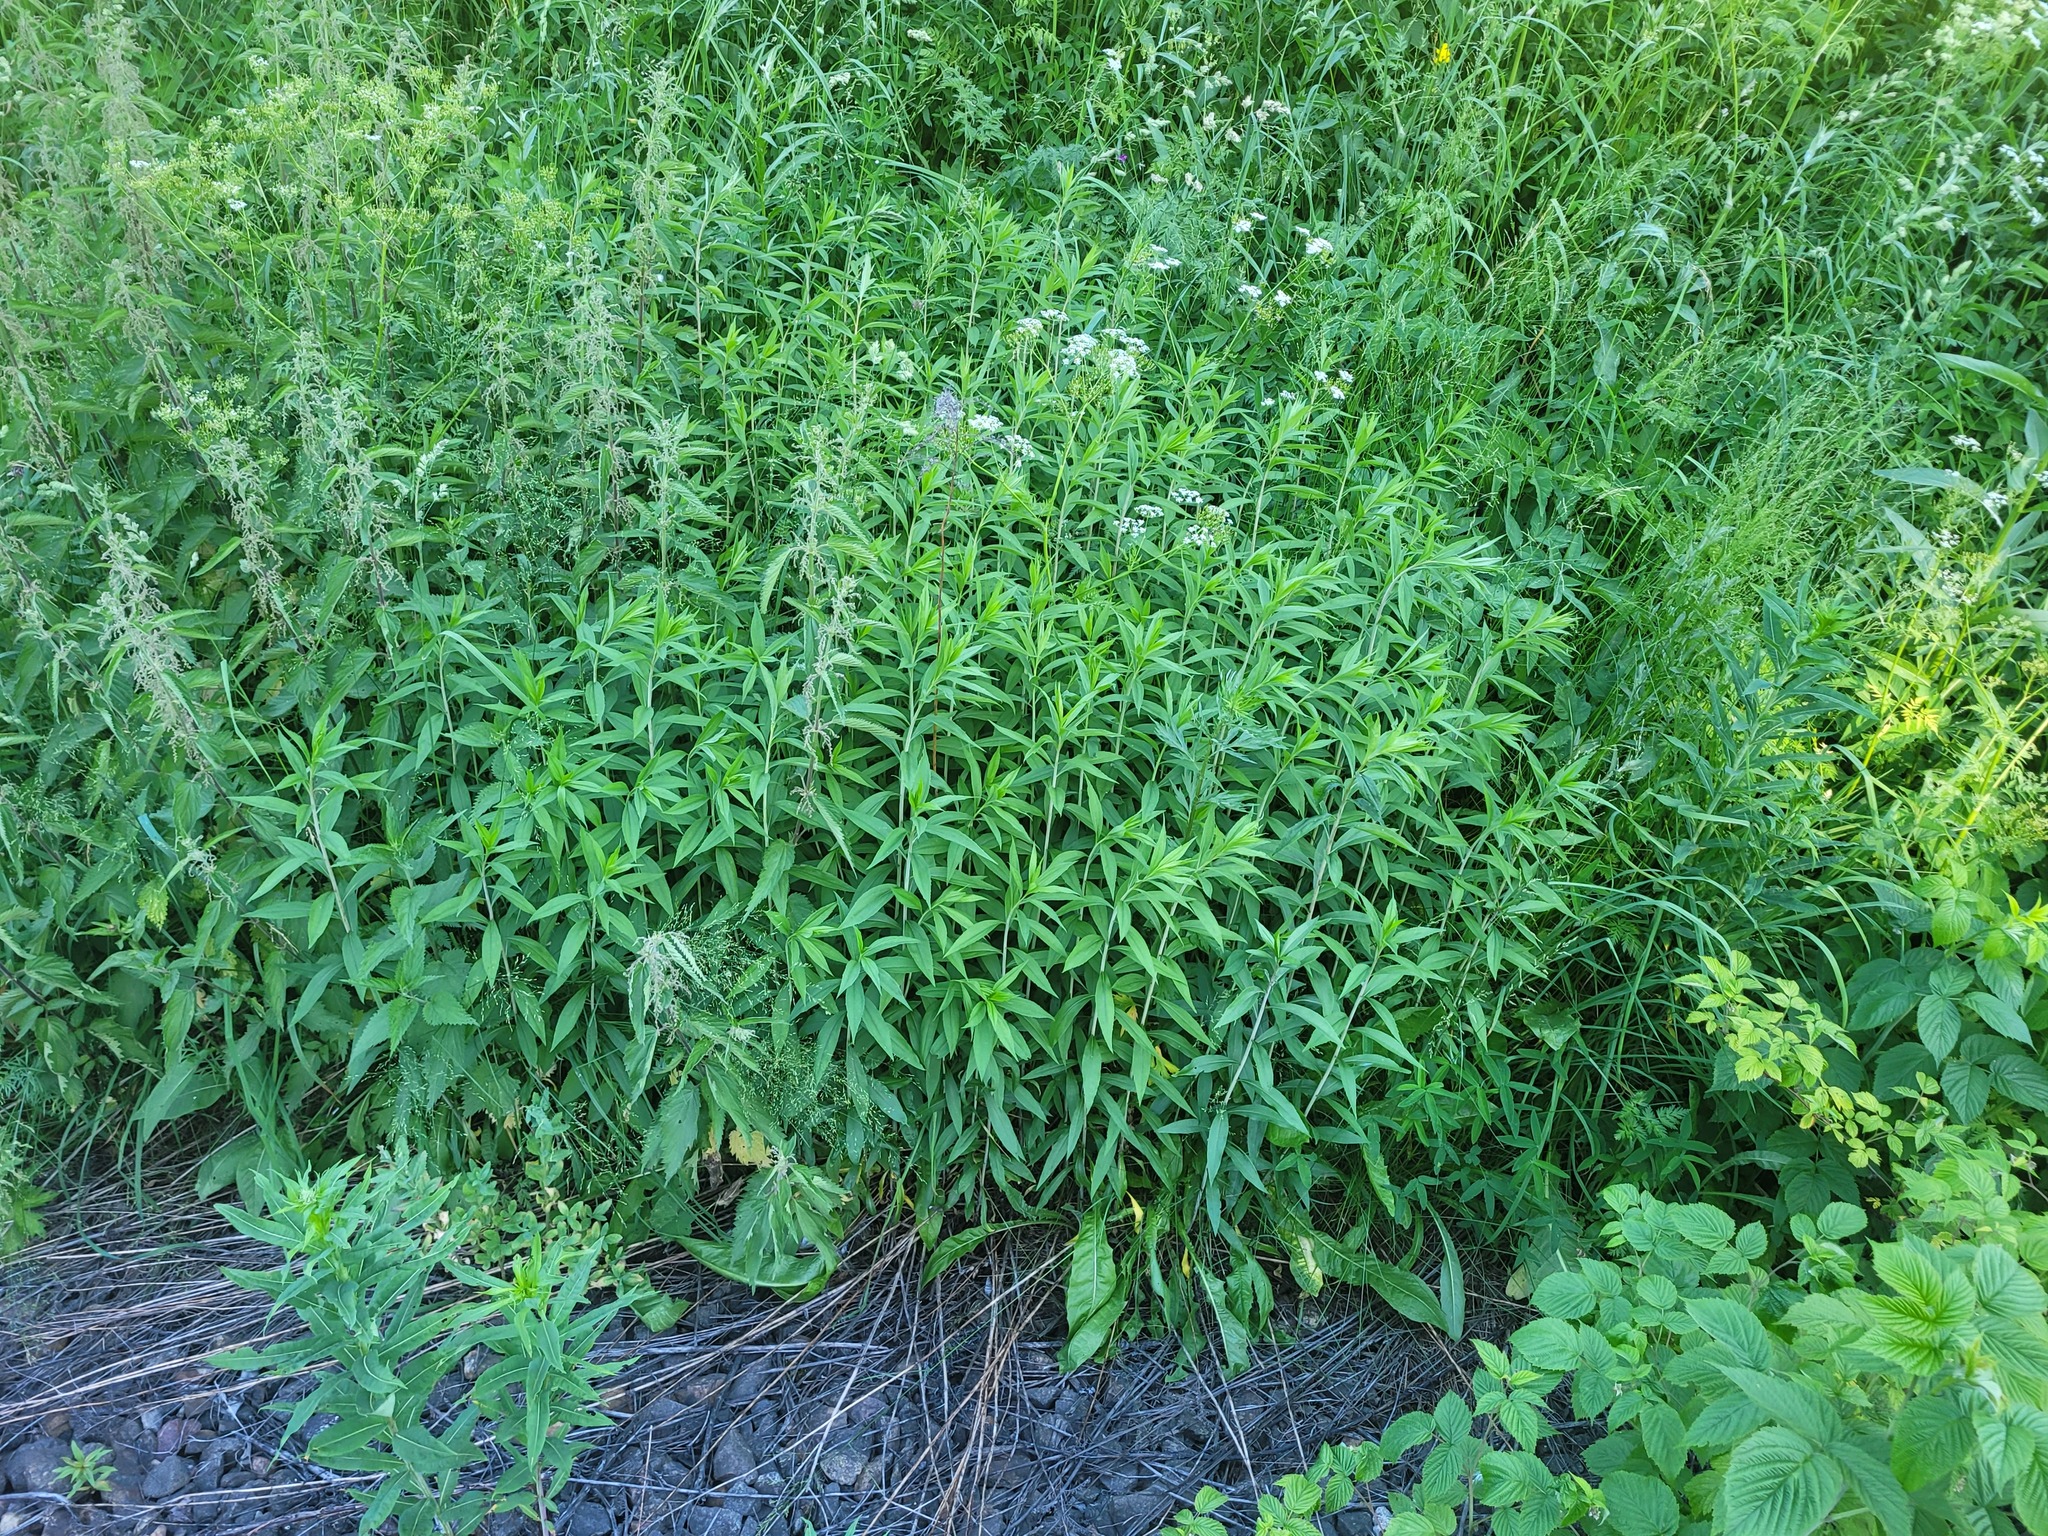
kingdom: Plantae
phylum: Tracheophyta
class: Magnoliopsida
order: Asterales
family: Asteraceae
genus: Solidago
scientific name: Solidago gigantea
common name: Giant goldenrod
